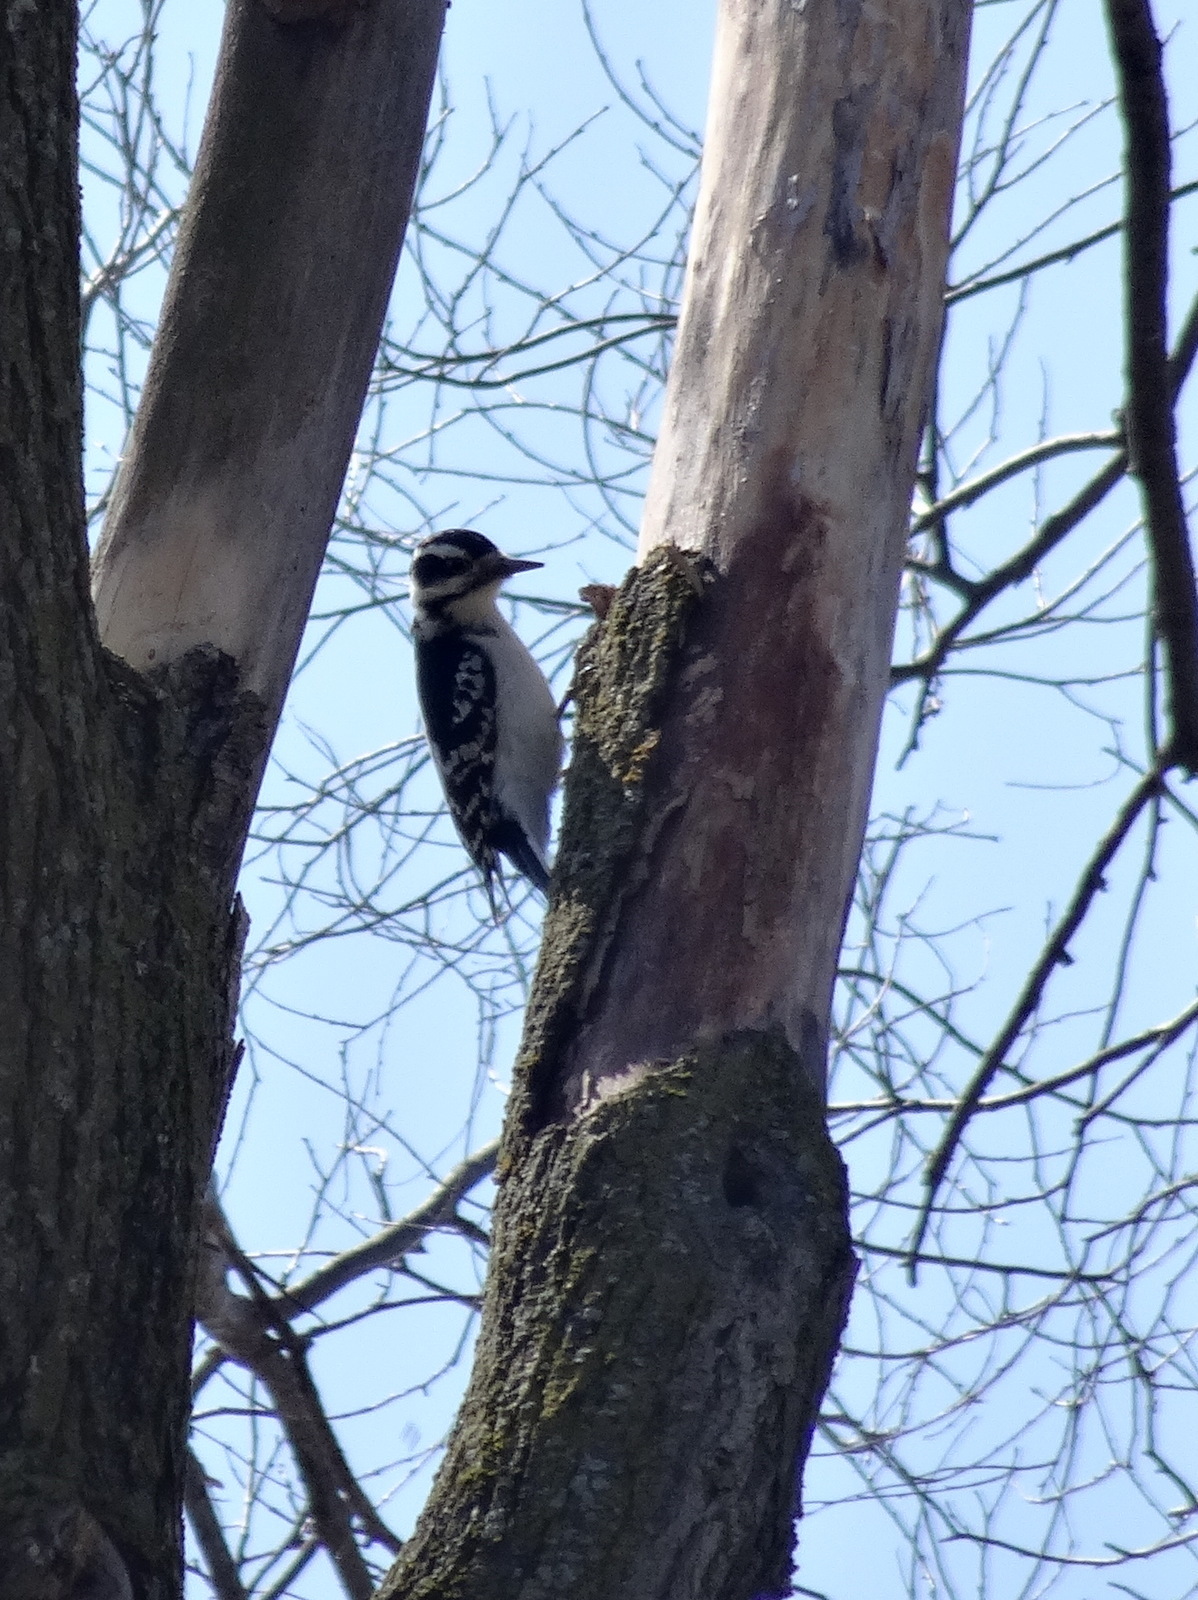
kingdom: Animalia
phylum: Chordata
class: Aves
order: Piciformes
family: Picidae
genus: Leuconotopicus
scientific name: Leuconotopicus villosus
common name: Hairy woodpecker
